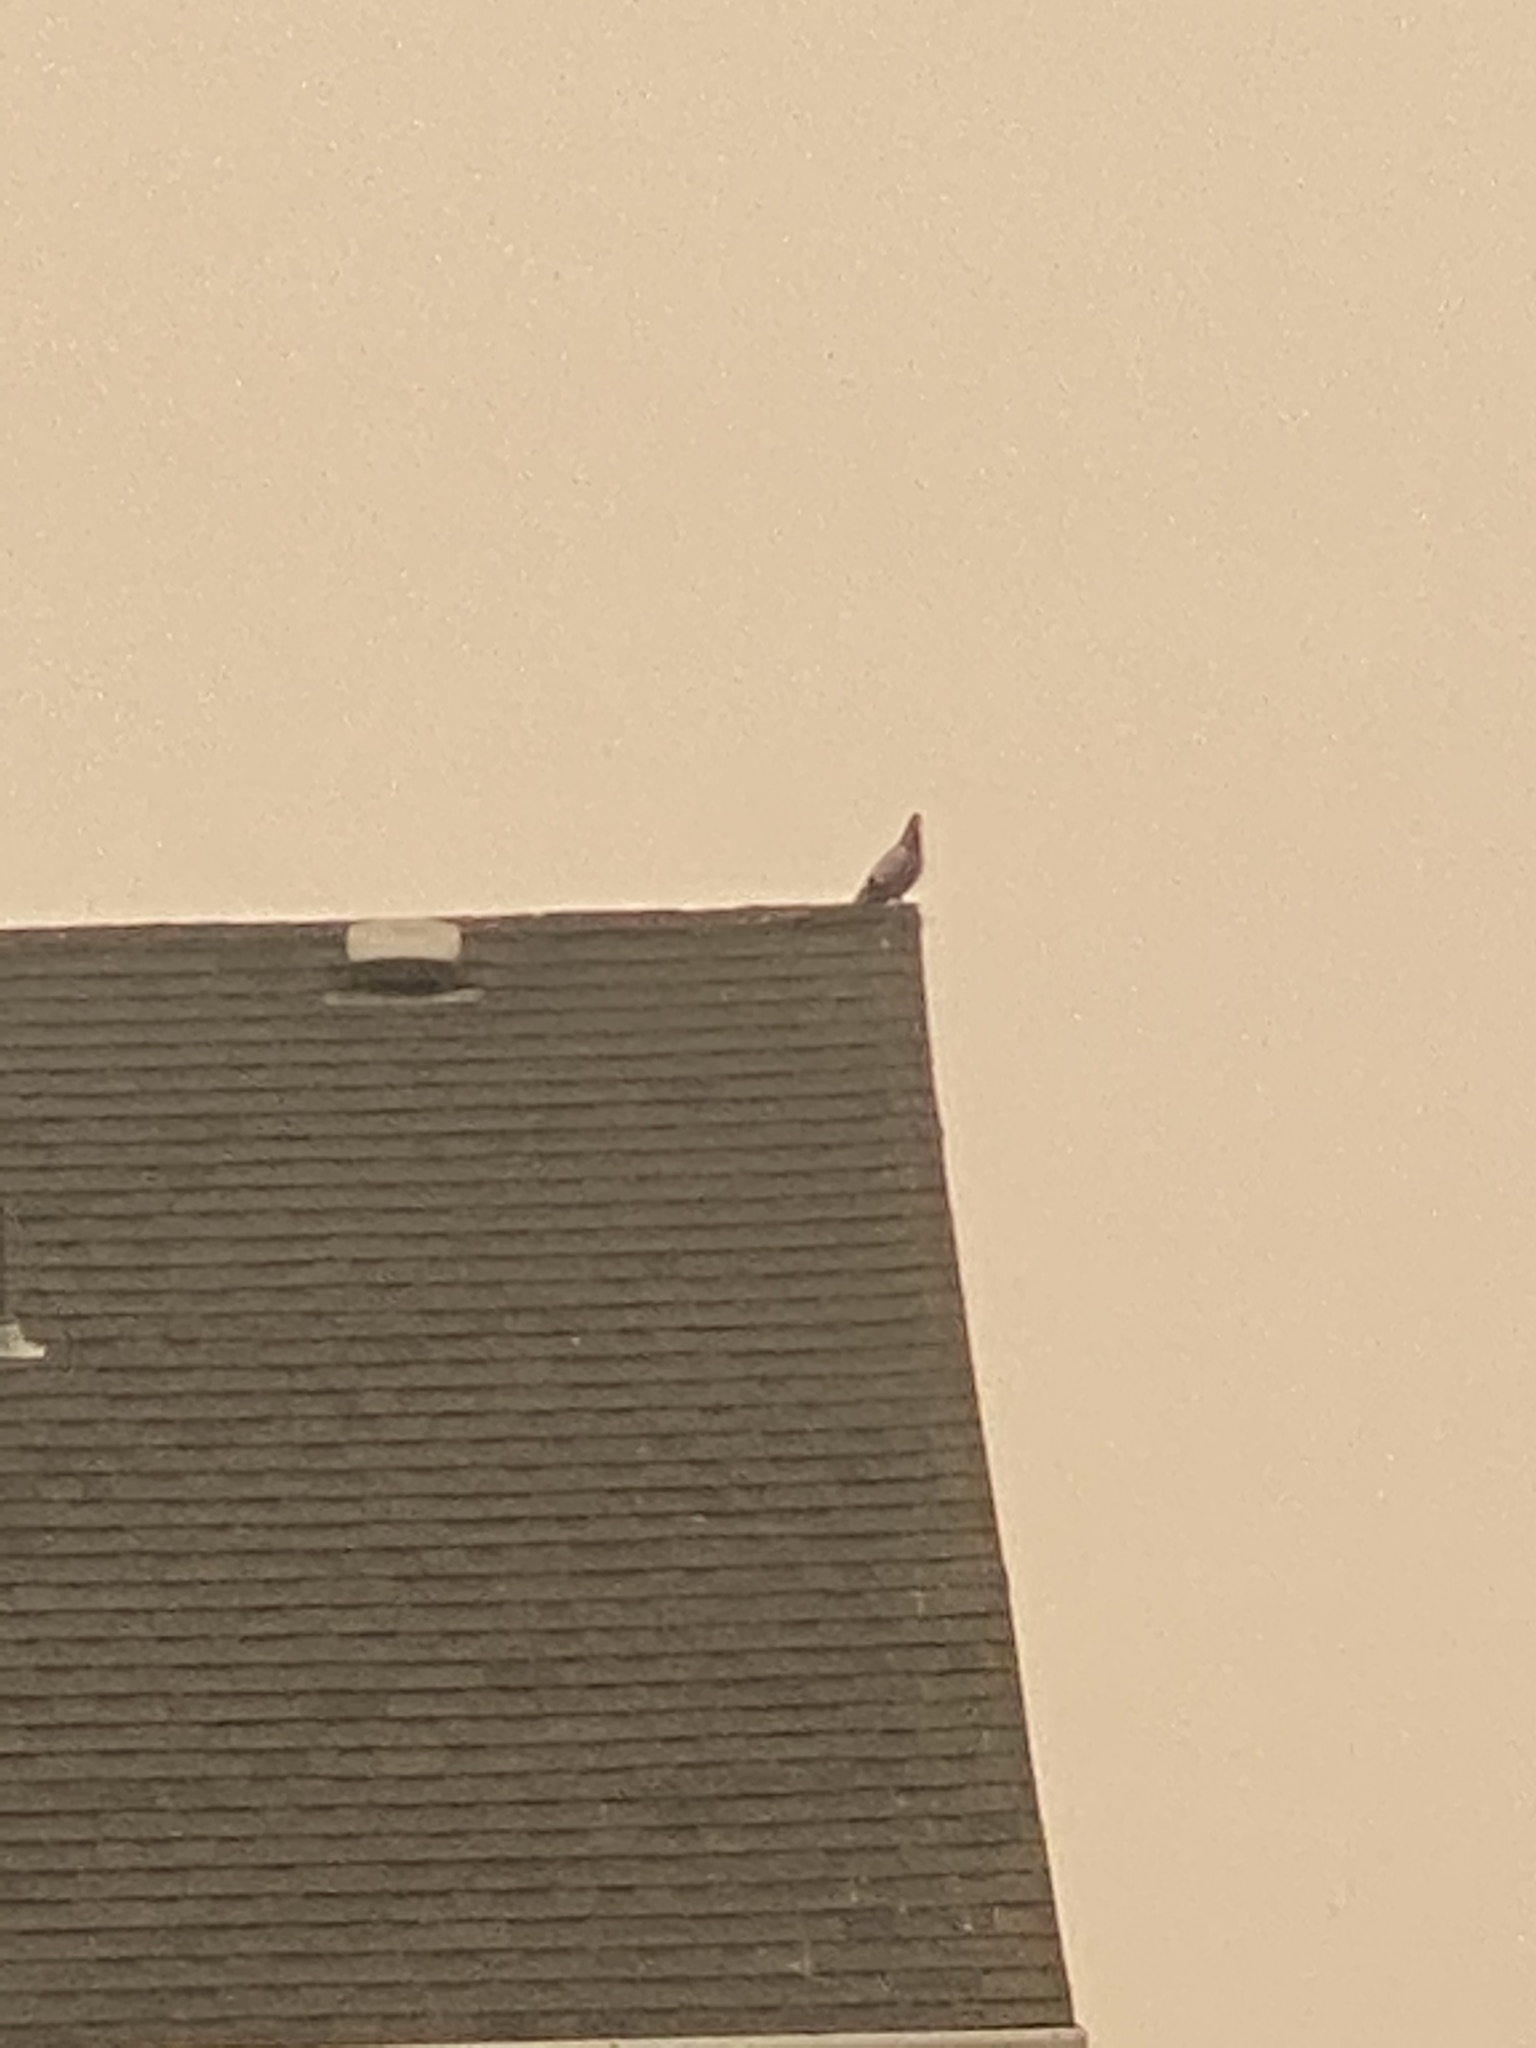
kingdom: Animalia
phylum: Chordata
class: Aves
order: Columbiformes
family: Columbidae
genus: Columba
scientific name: Columba livia
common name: Rock pigeon
